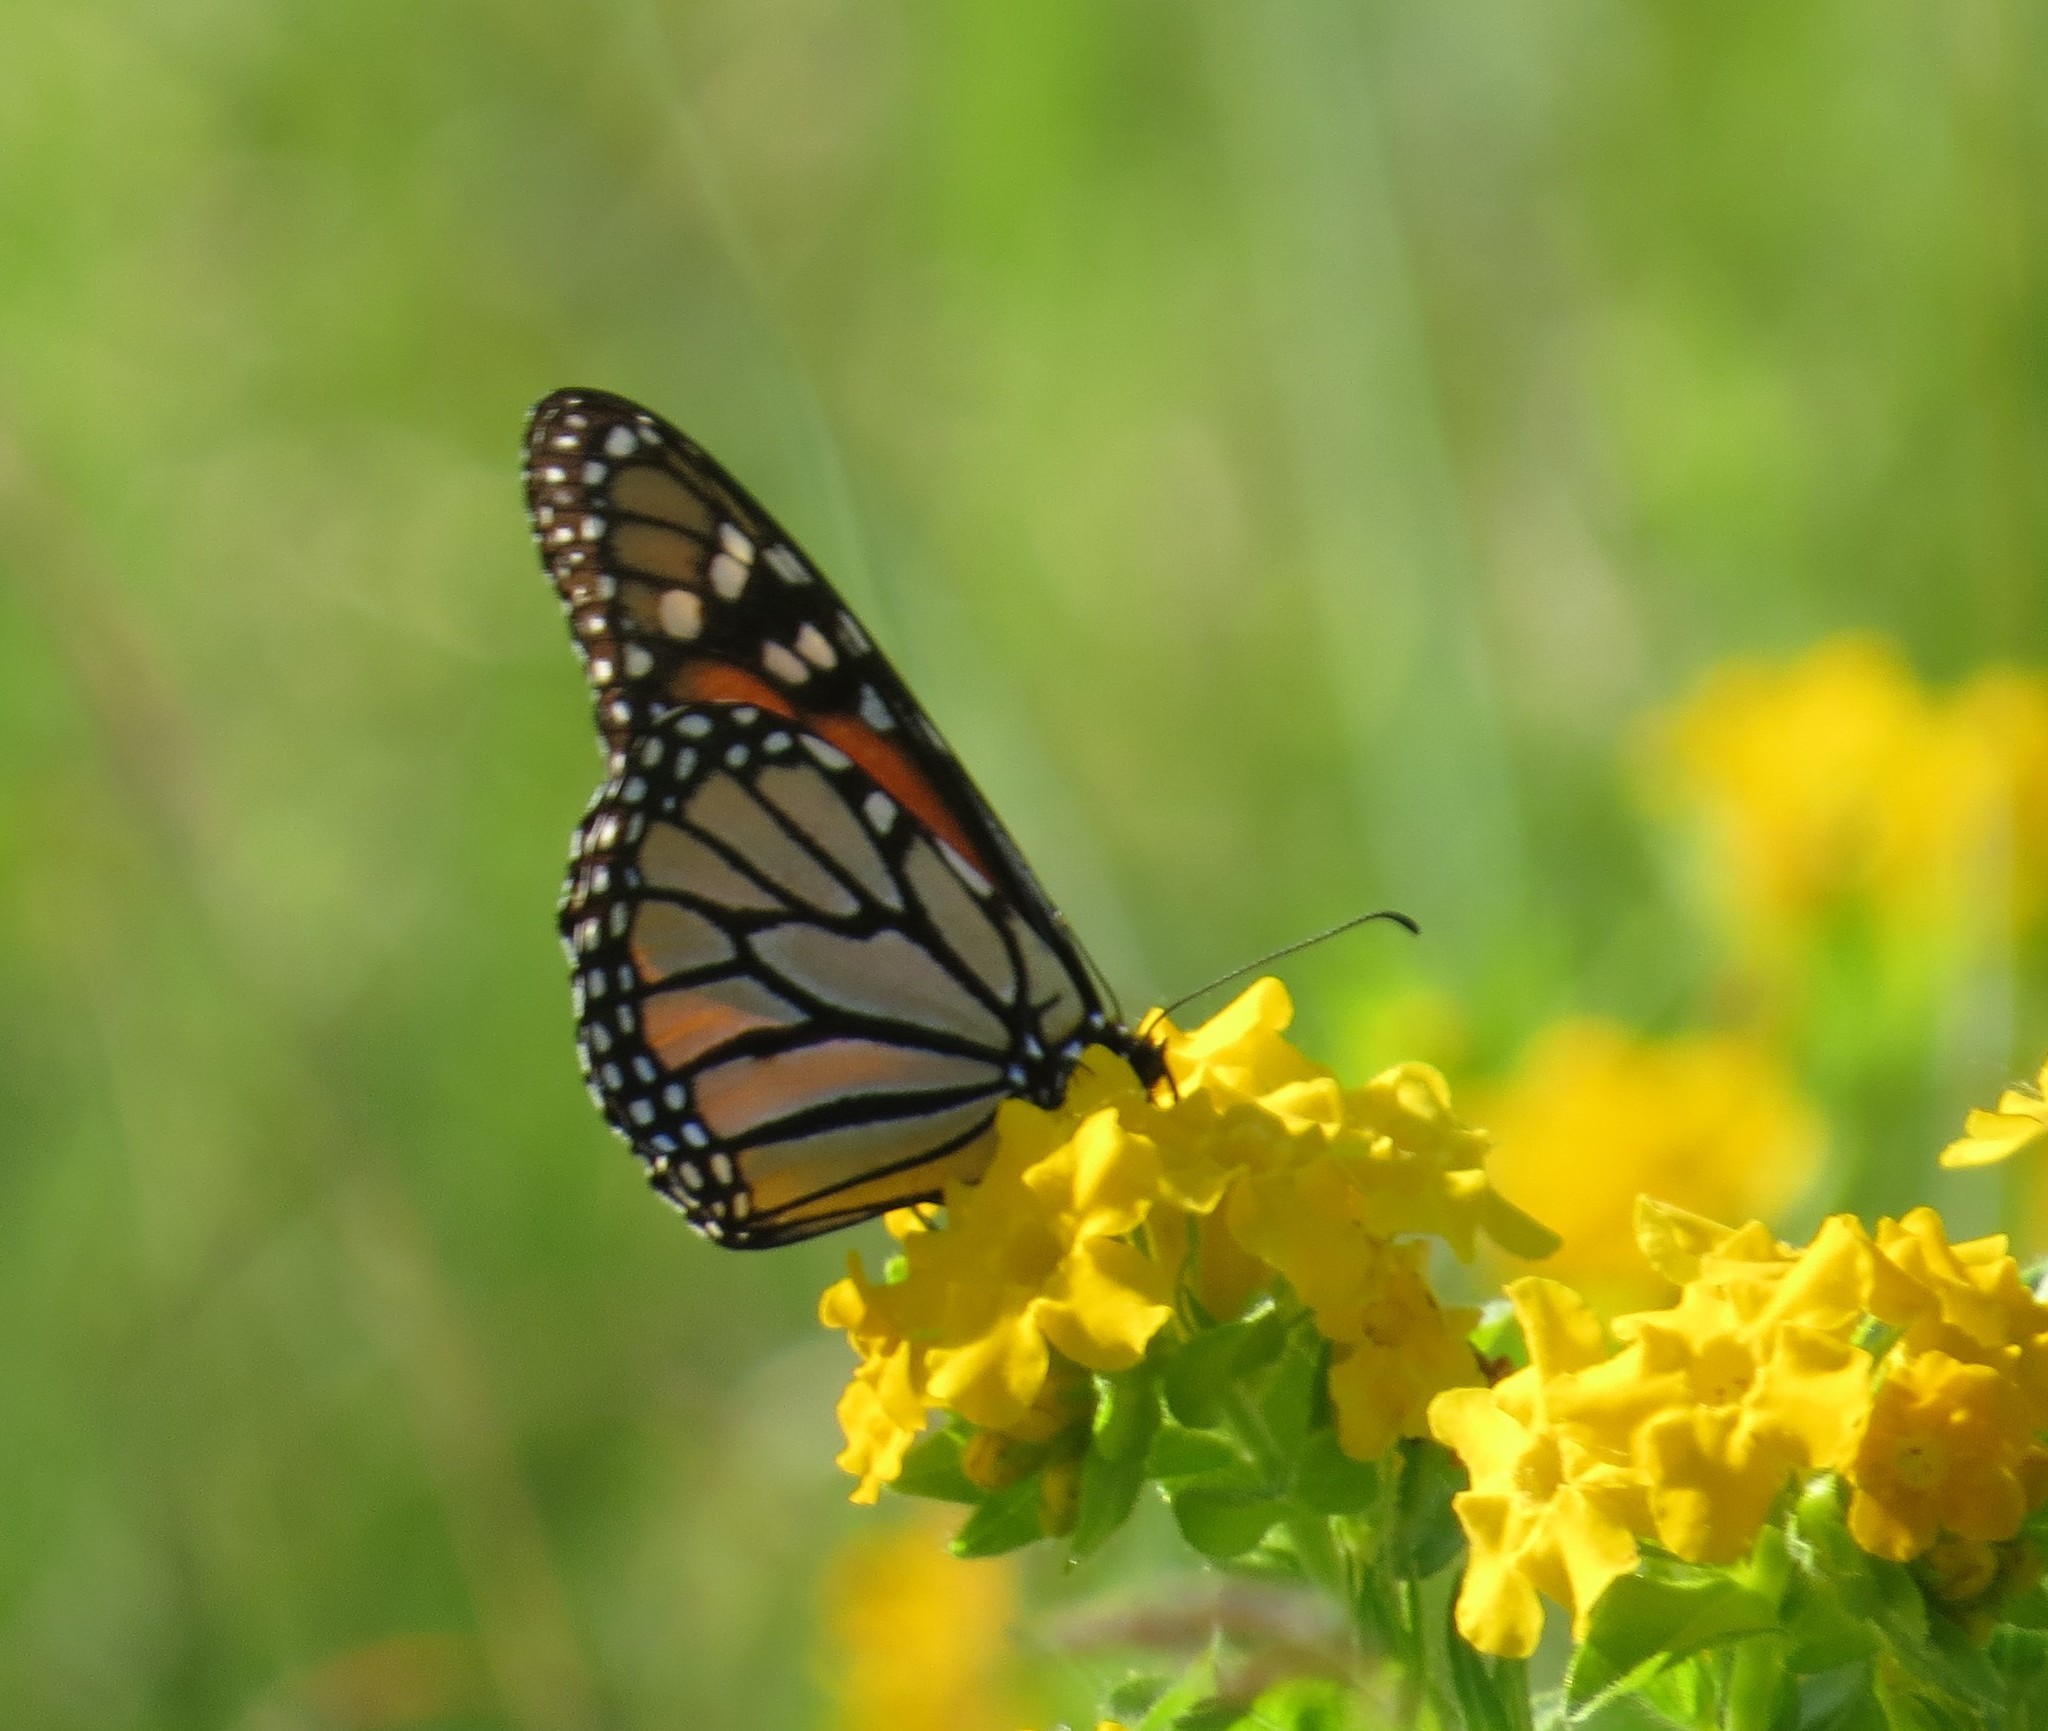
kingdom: Animalia
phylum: Arthropoda
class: Insecta
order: Lepidoptera
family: Nymphalidae
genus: Danaus
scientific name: Danaus plexippus
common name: Monarch
